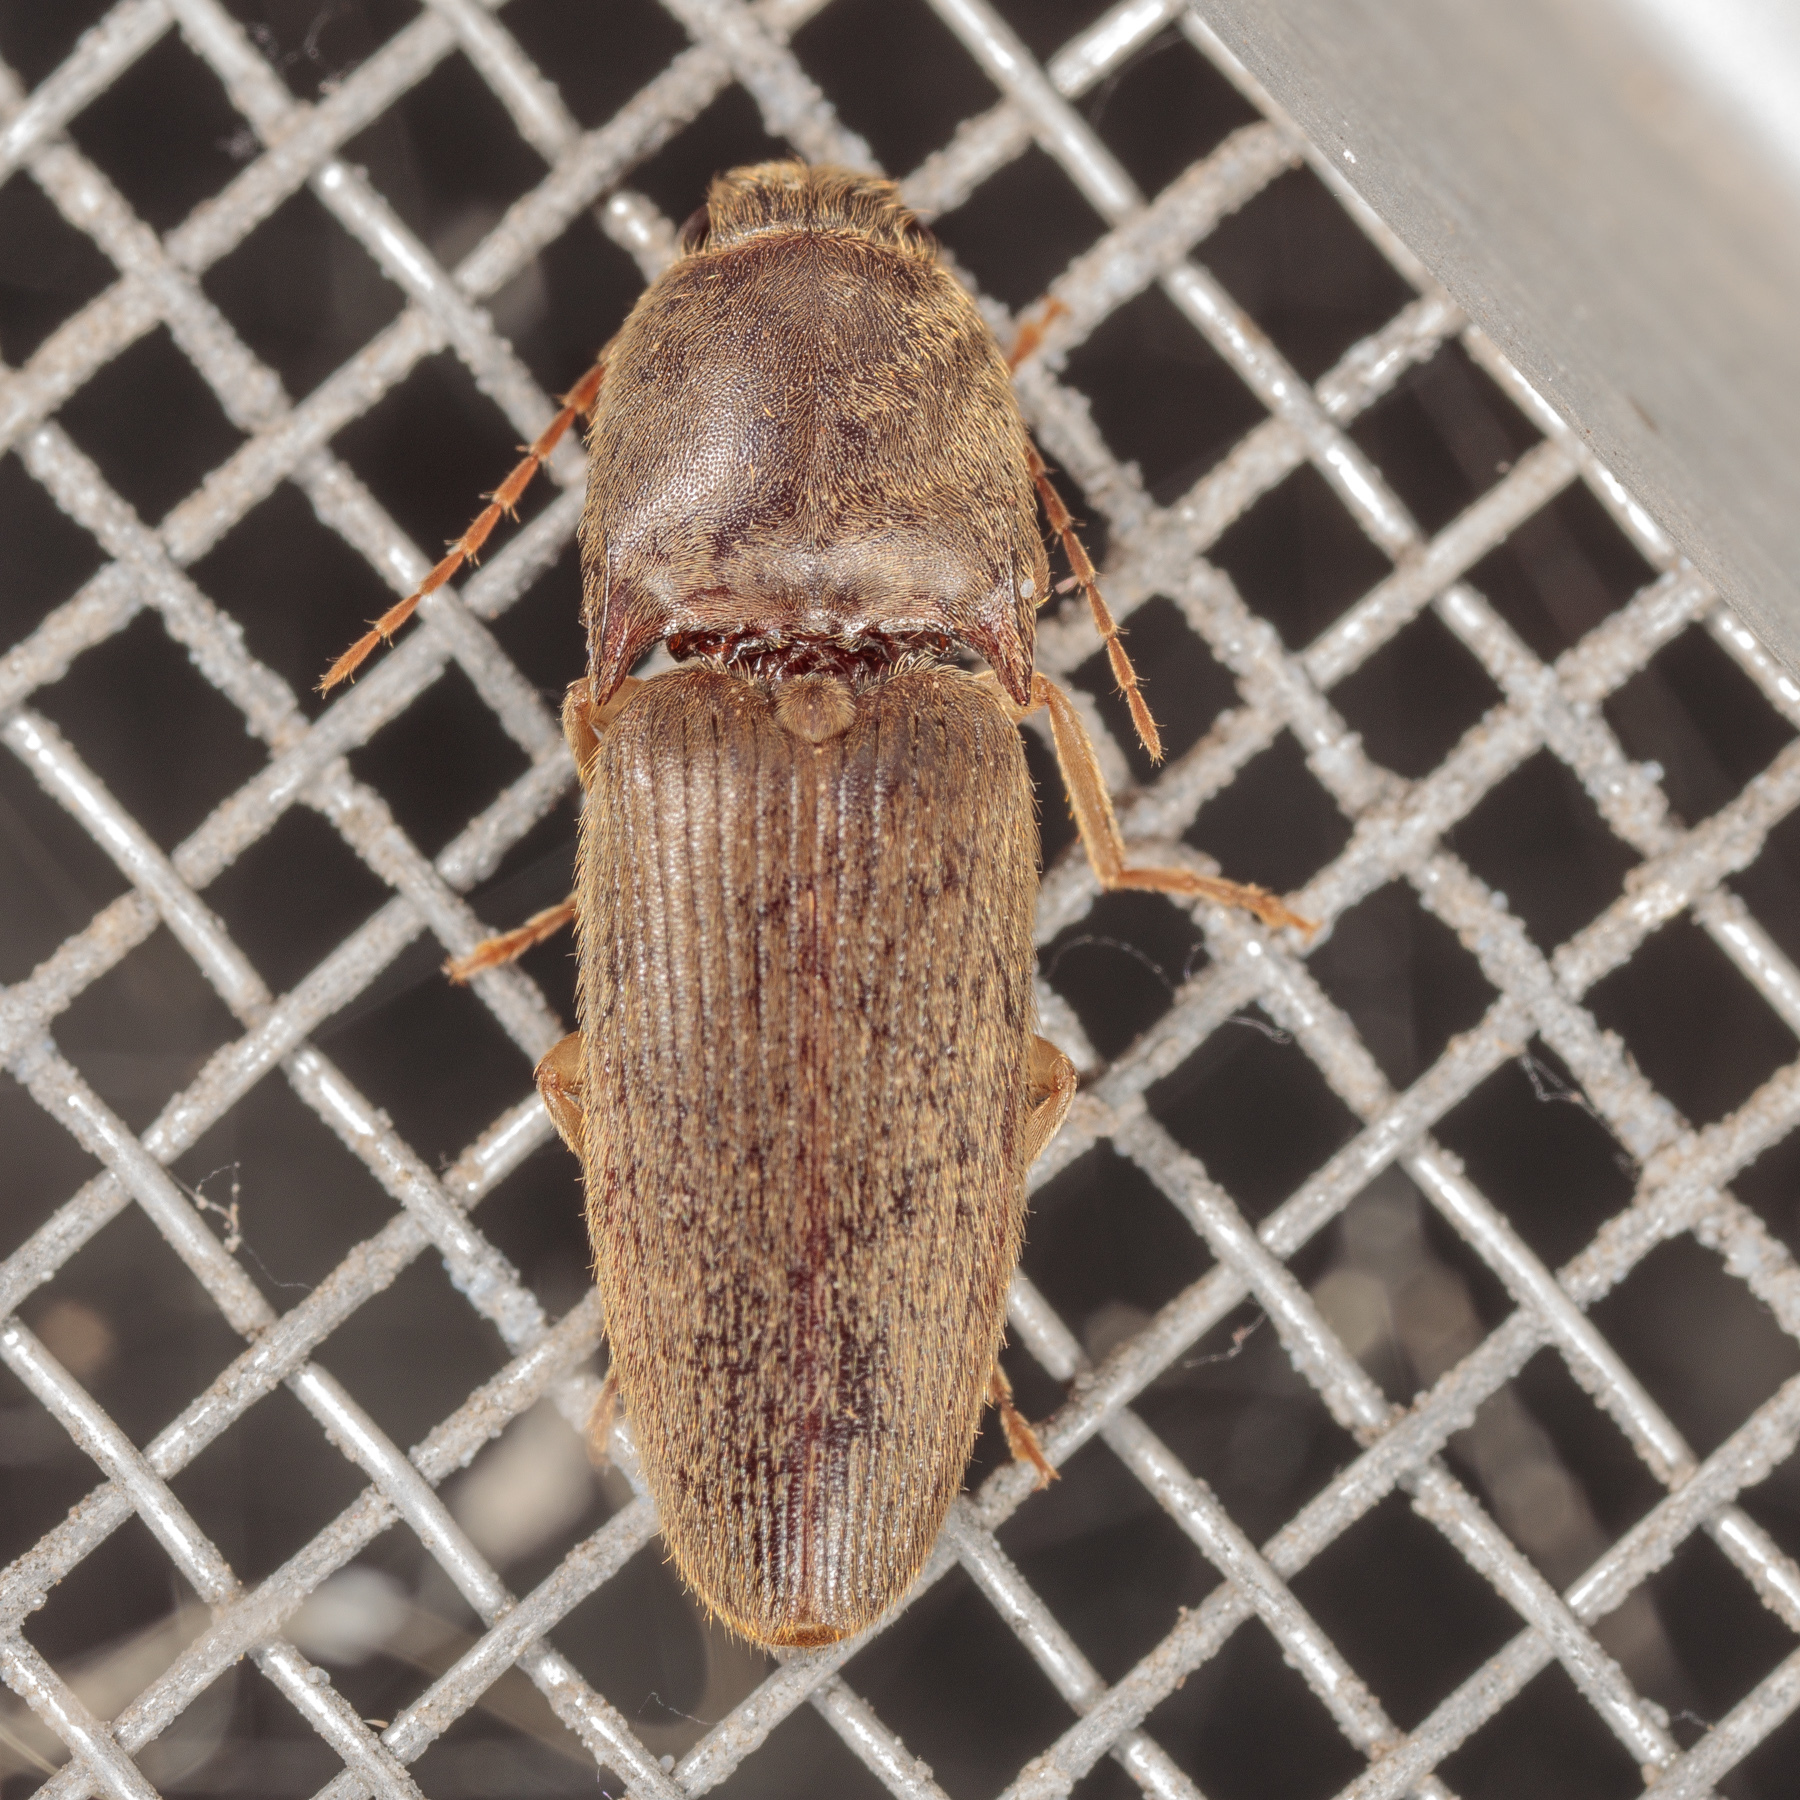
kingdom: Animalia
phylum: Arthropoda
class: Insecta
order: Coleoptera
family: Elateridae
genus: Conoderus
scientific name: Conoderus exsul
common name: Click beetle
